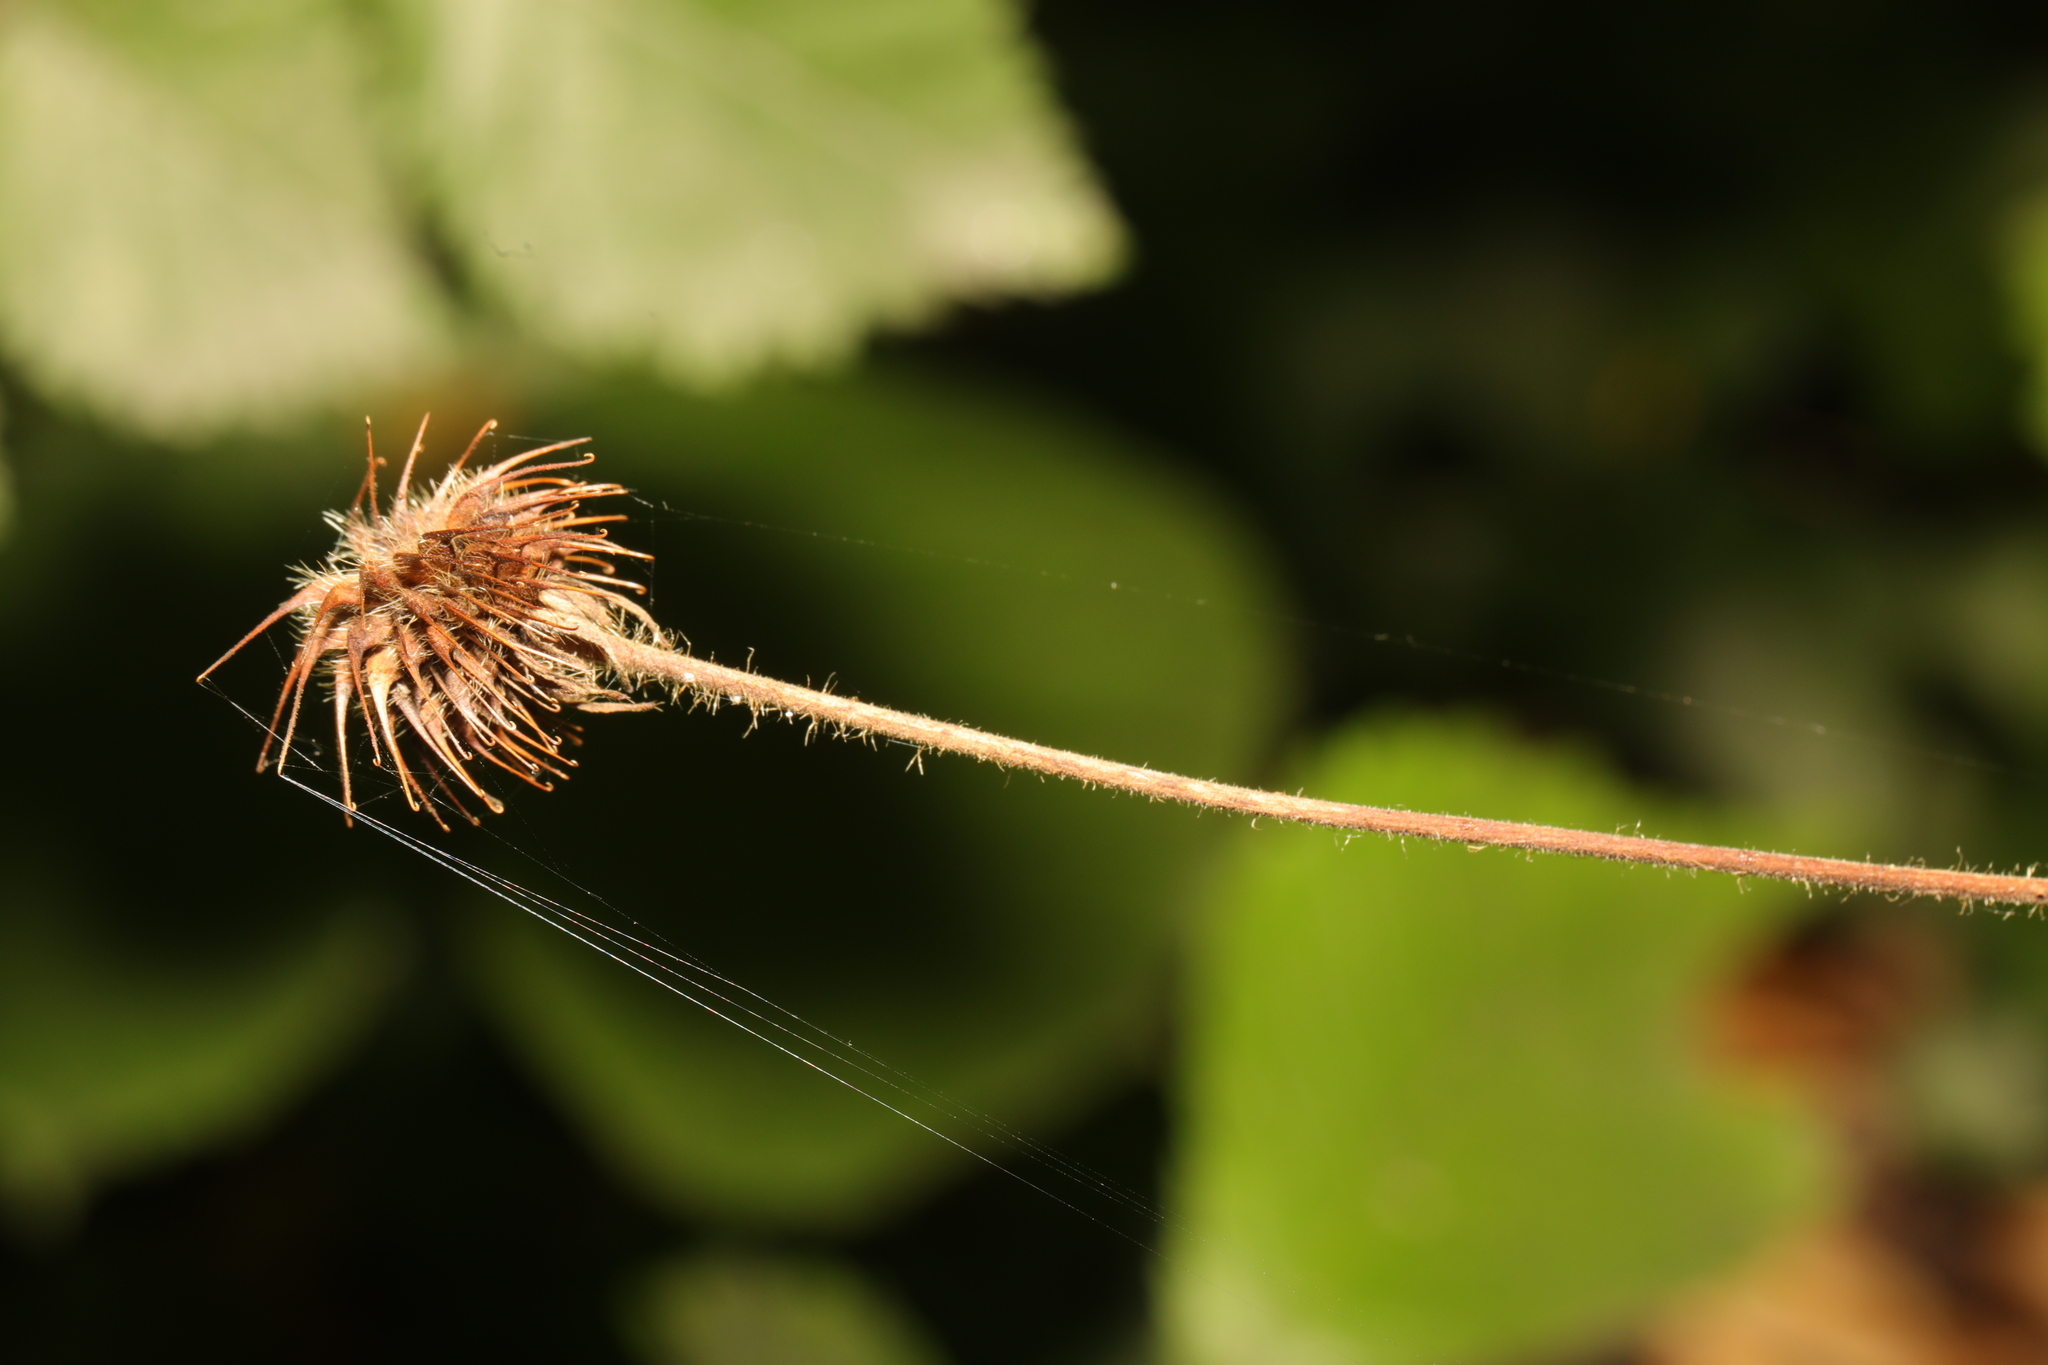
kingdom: Plantae
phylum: Tracheophyta
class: Magnoliopsida
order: Rosales
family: Rosaceae
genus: Geum
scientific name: Geum urbanum
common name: Wood avens
